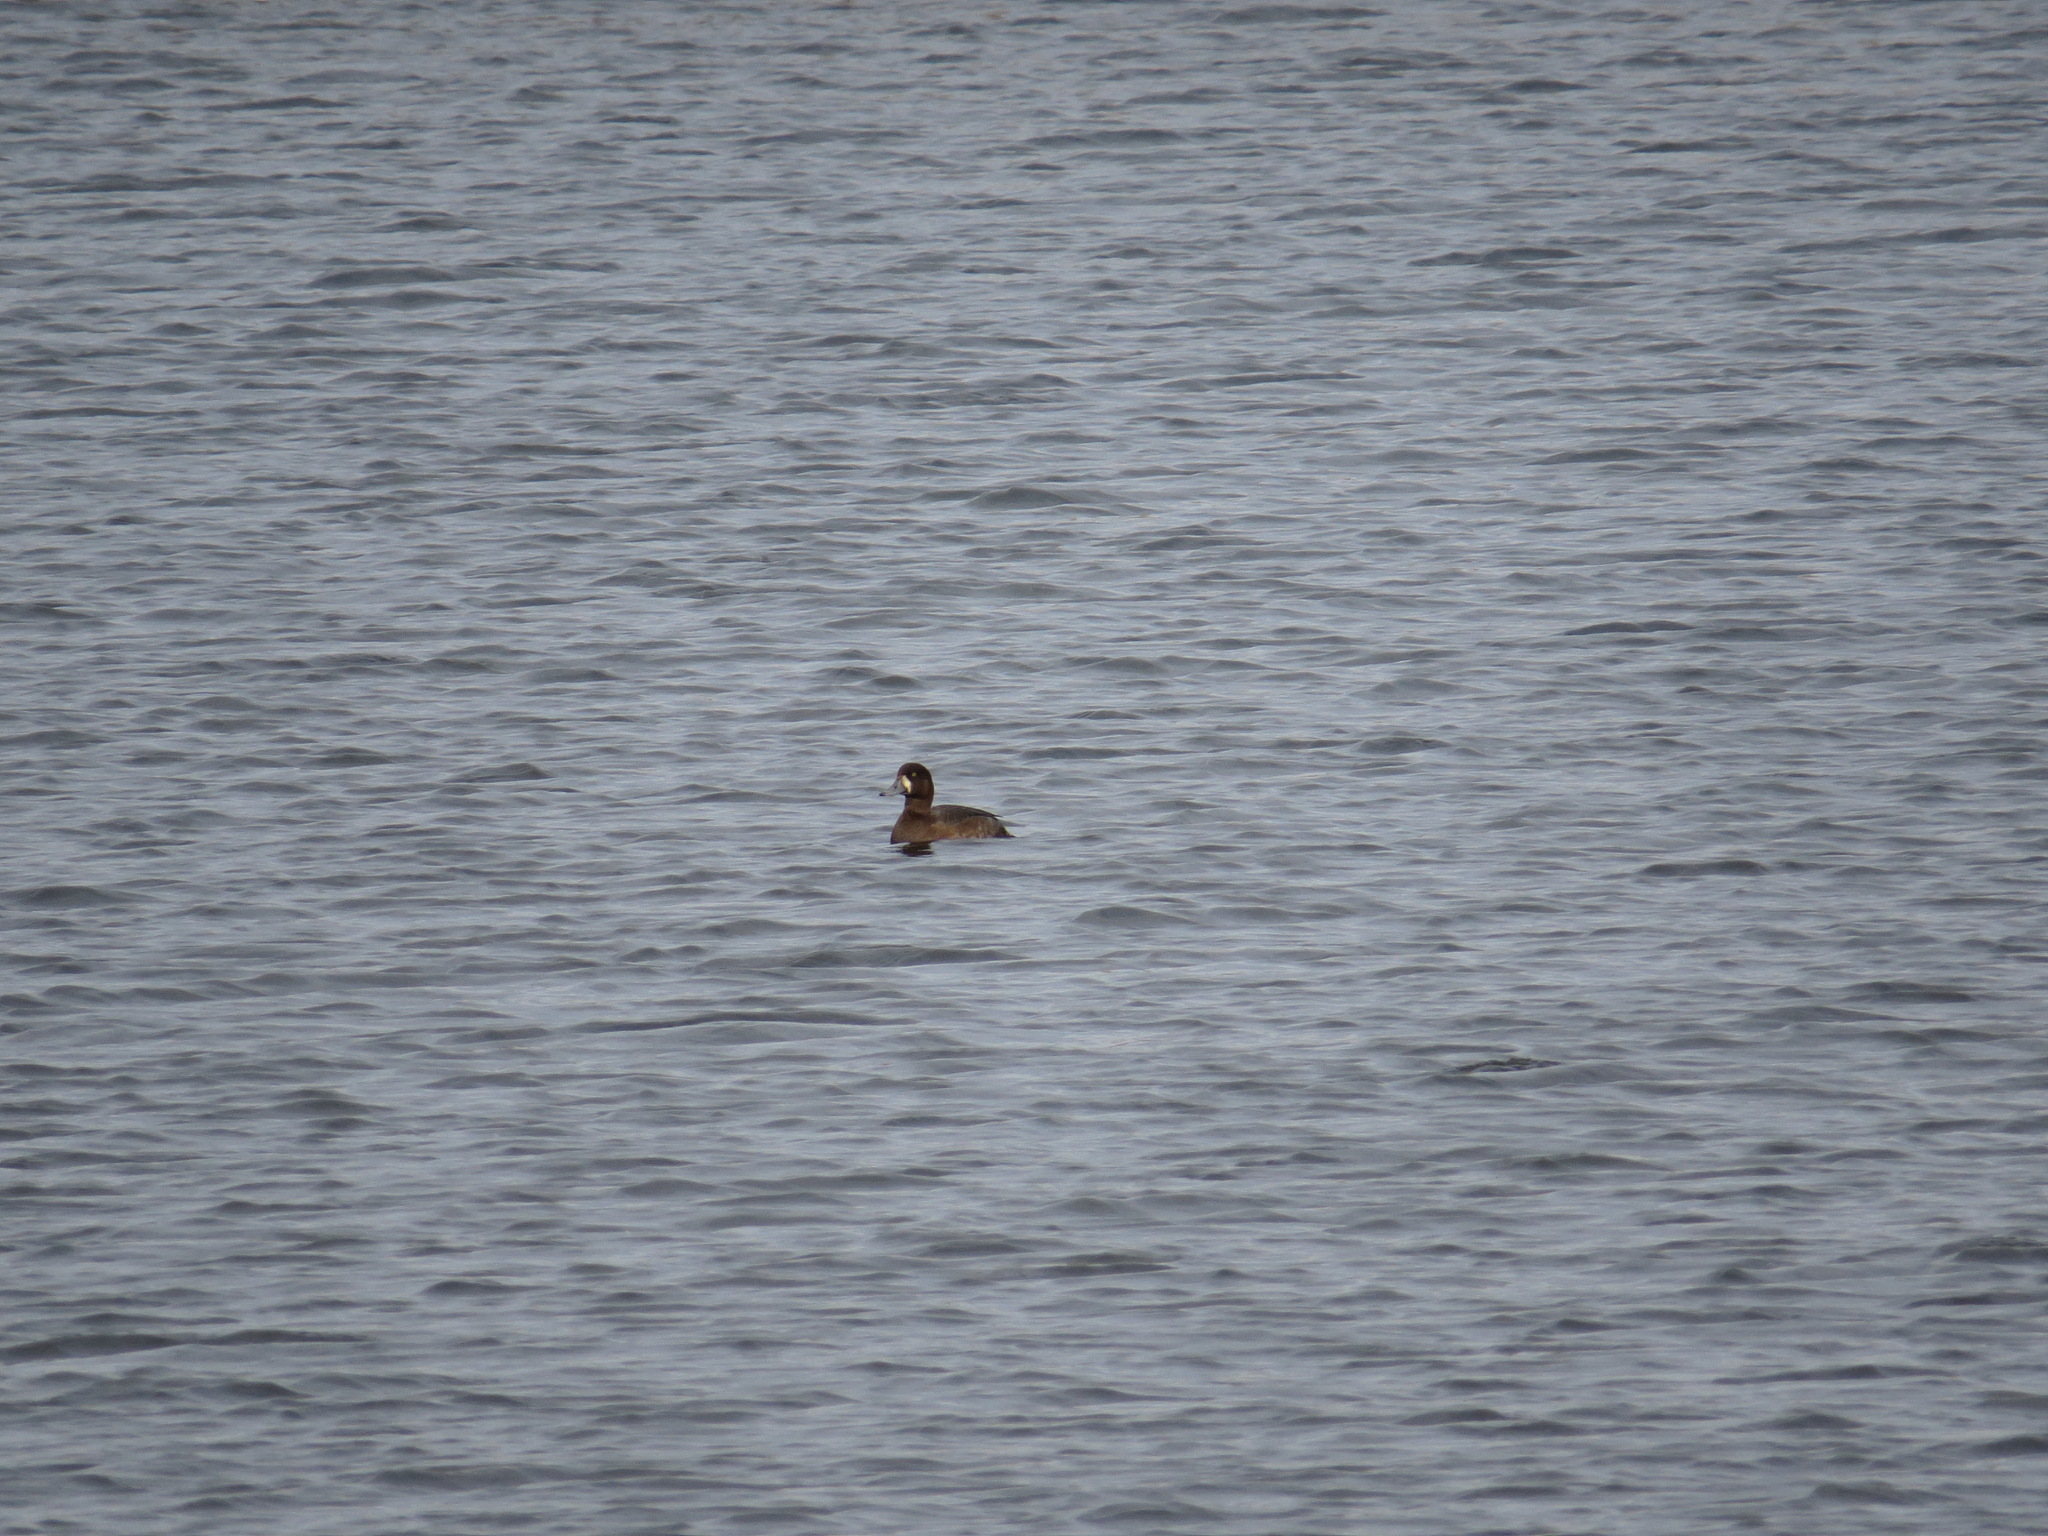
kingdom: Animalia
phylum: Chordata
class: Aves
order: Anseriformes
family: Anatidae
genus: Aythya
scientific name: Aythya marila
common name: Greater scaup
